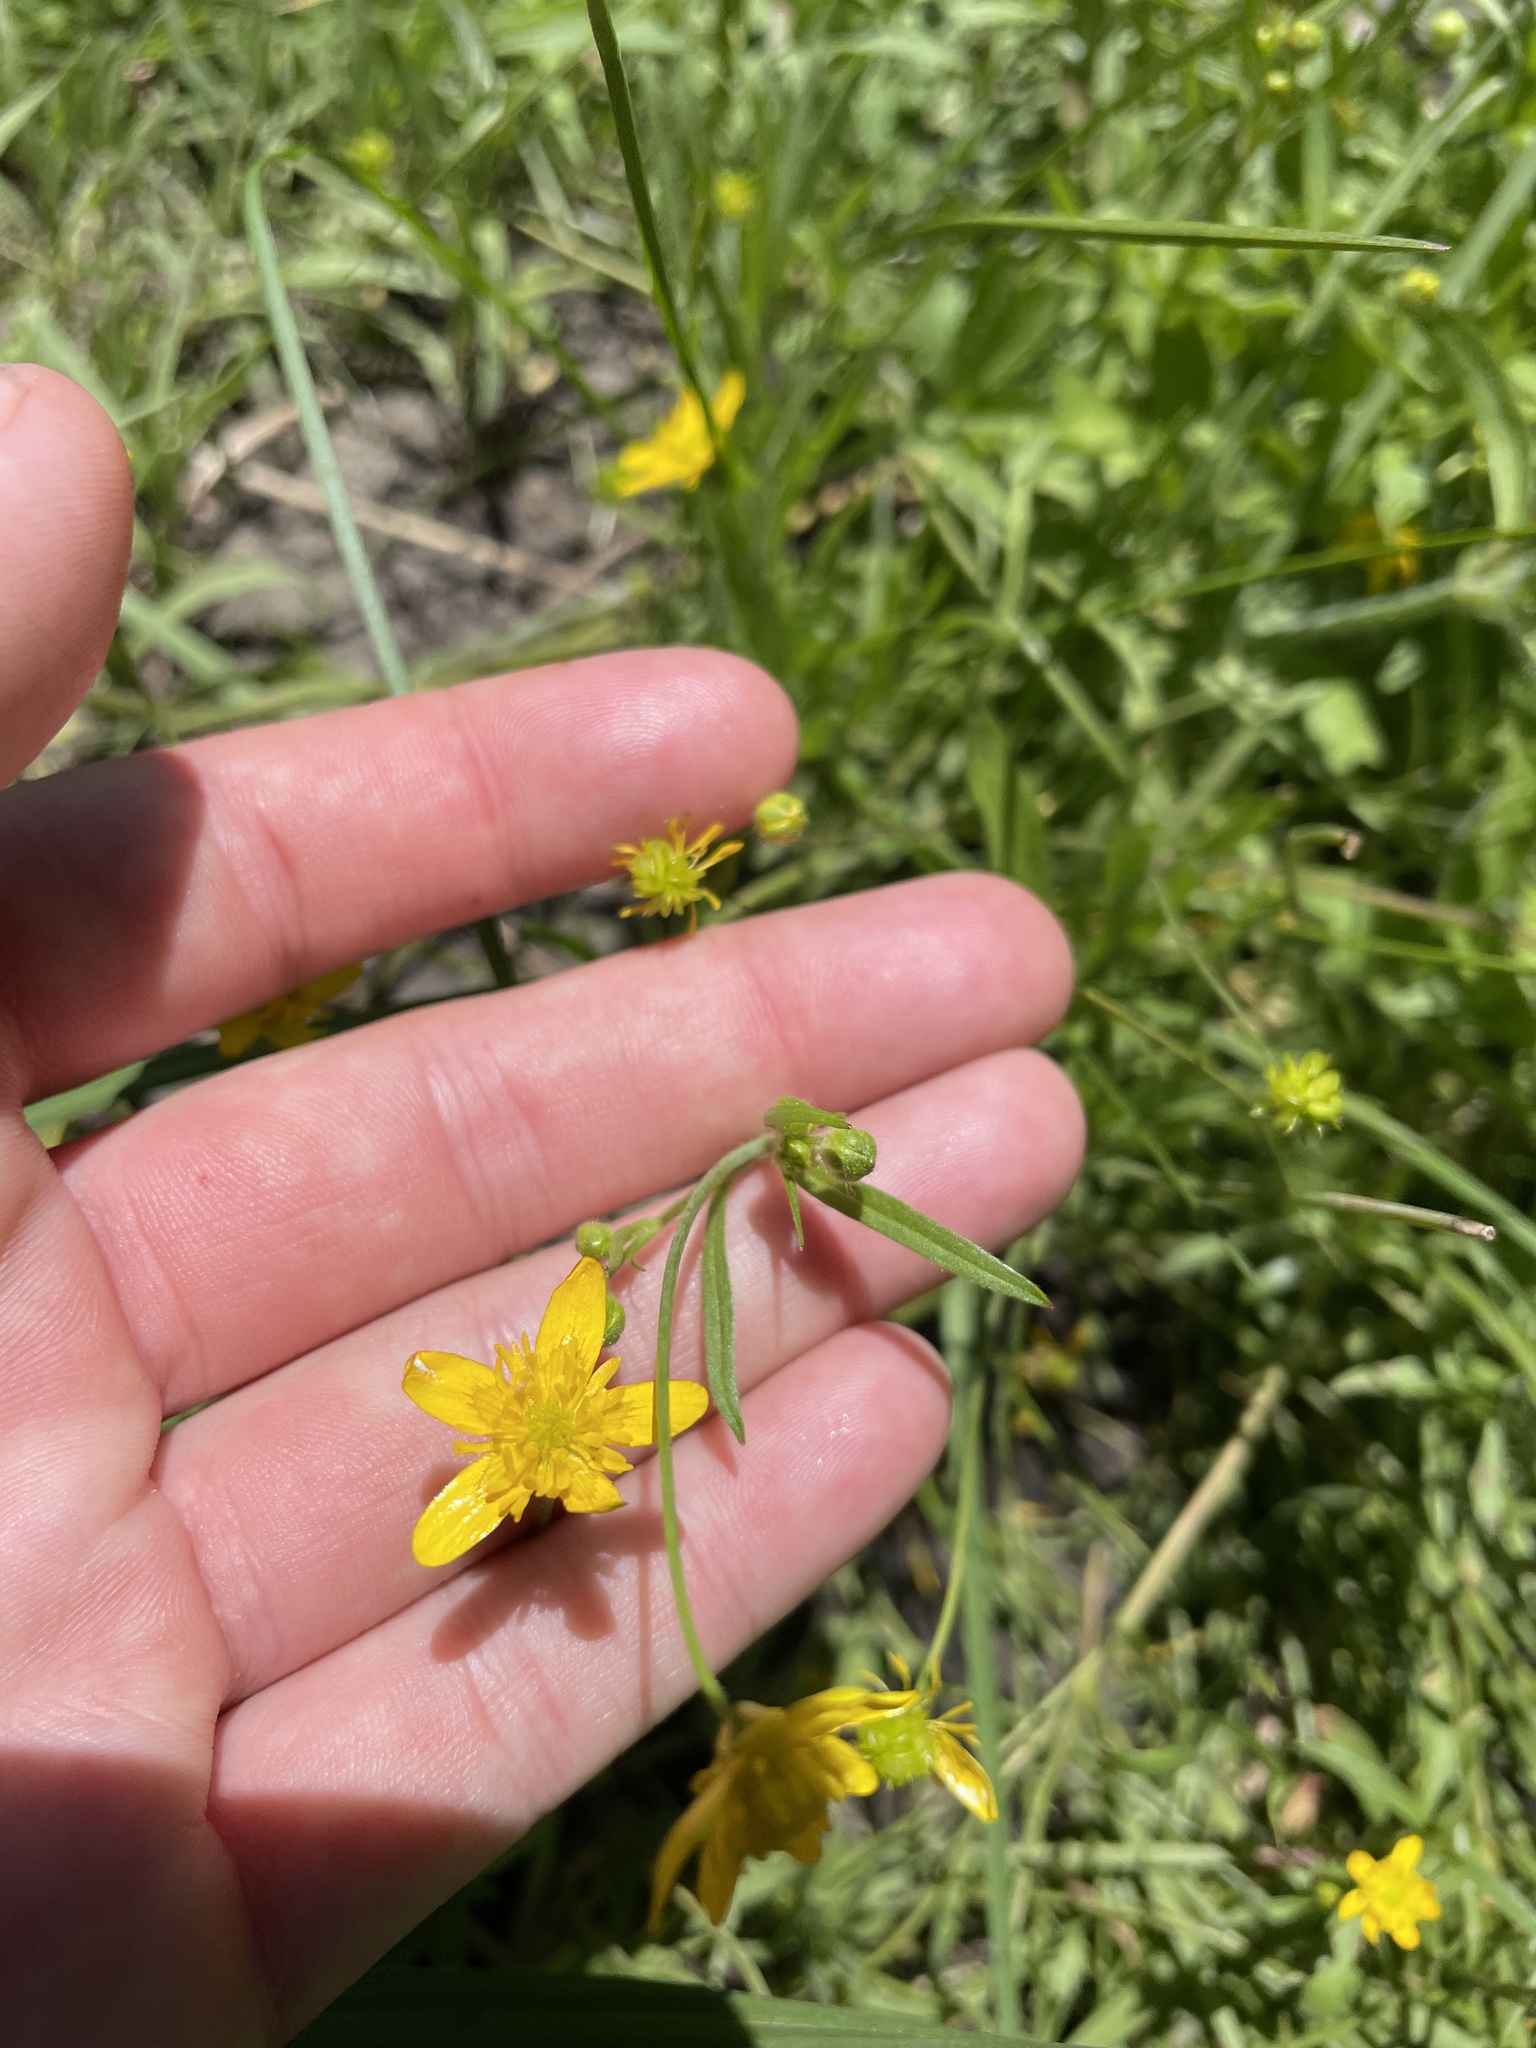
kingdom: Plantae
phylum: Tracheophyta
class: Magnoliopsida
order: Ranunculales
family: Ranunculaceae
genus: Ranunculus
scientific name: Ranunculus occidentalis
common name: Western buttercup
